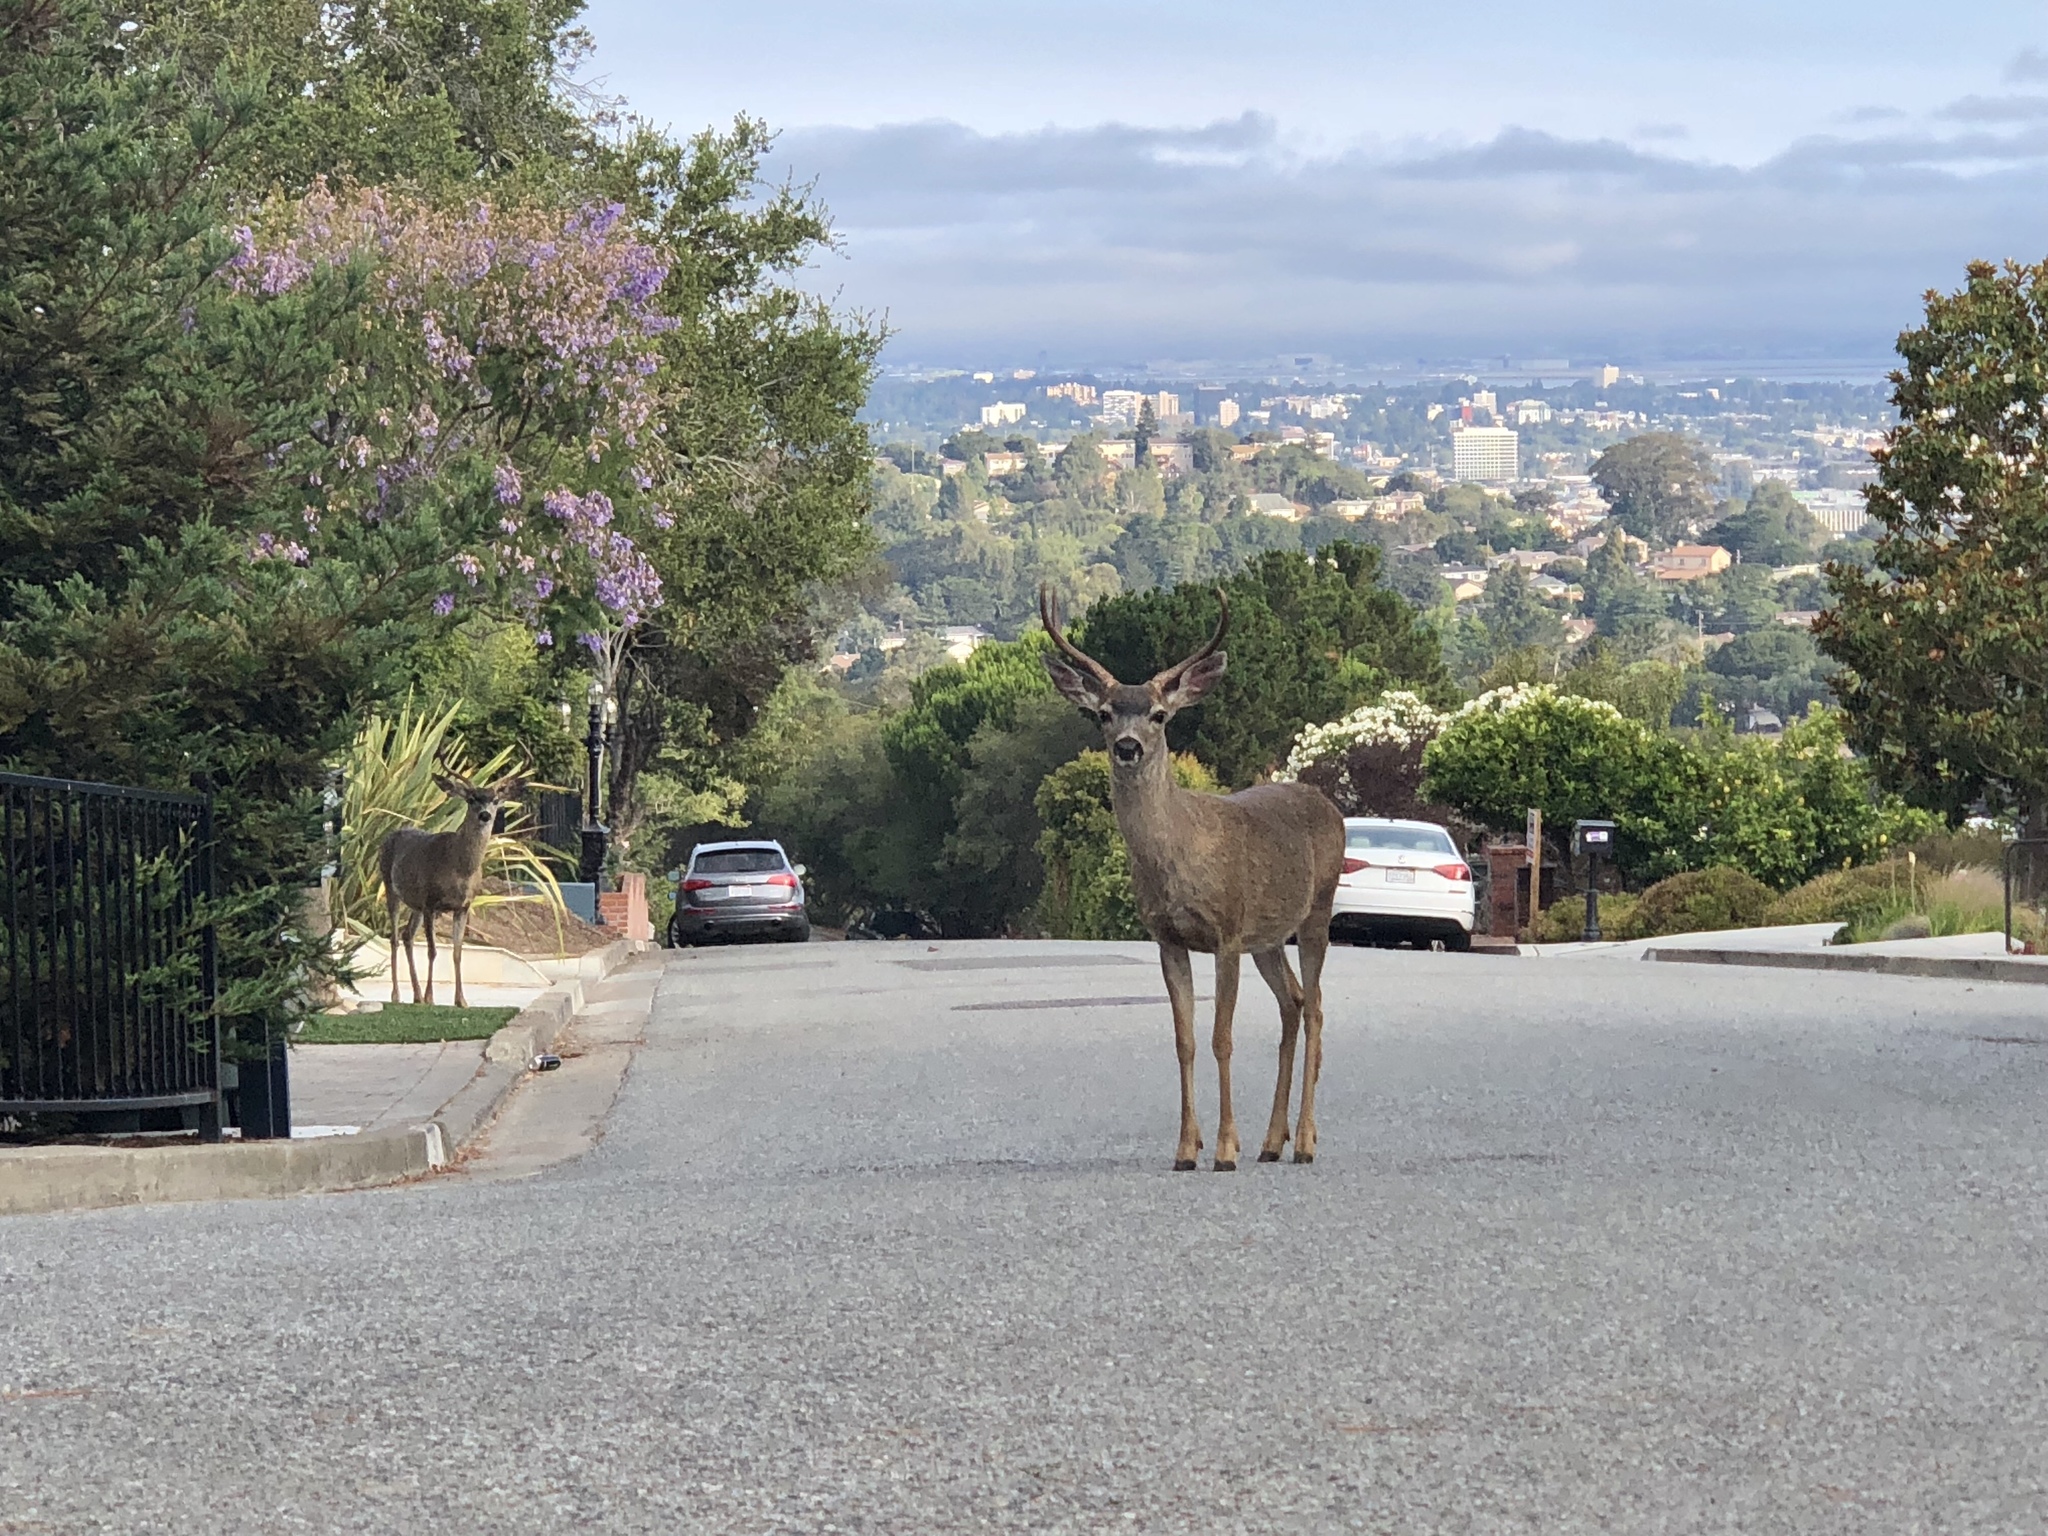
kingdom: Animalia
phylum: Chordata
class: Mammalia
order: Artiodactyla
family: Cervidae
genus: Odocoileus
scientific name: Odocoileus hemionus
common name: Mule deer
